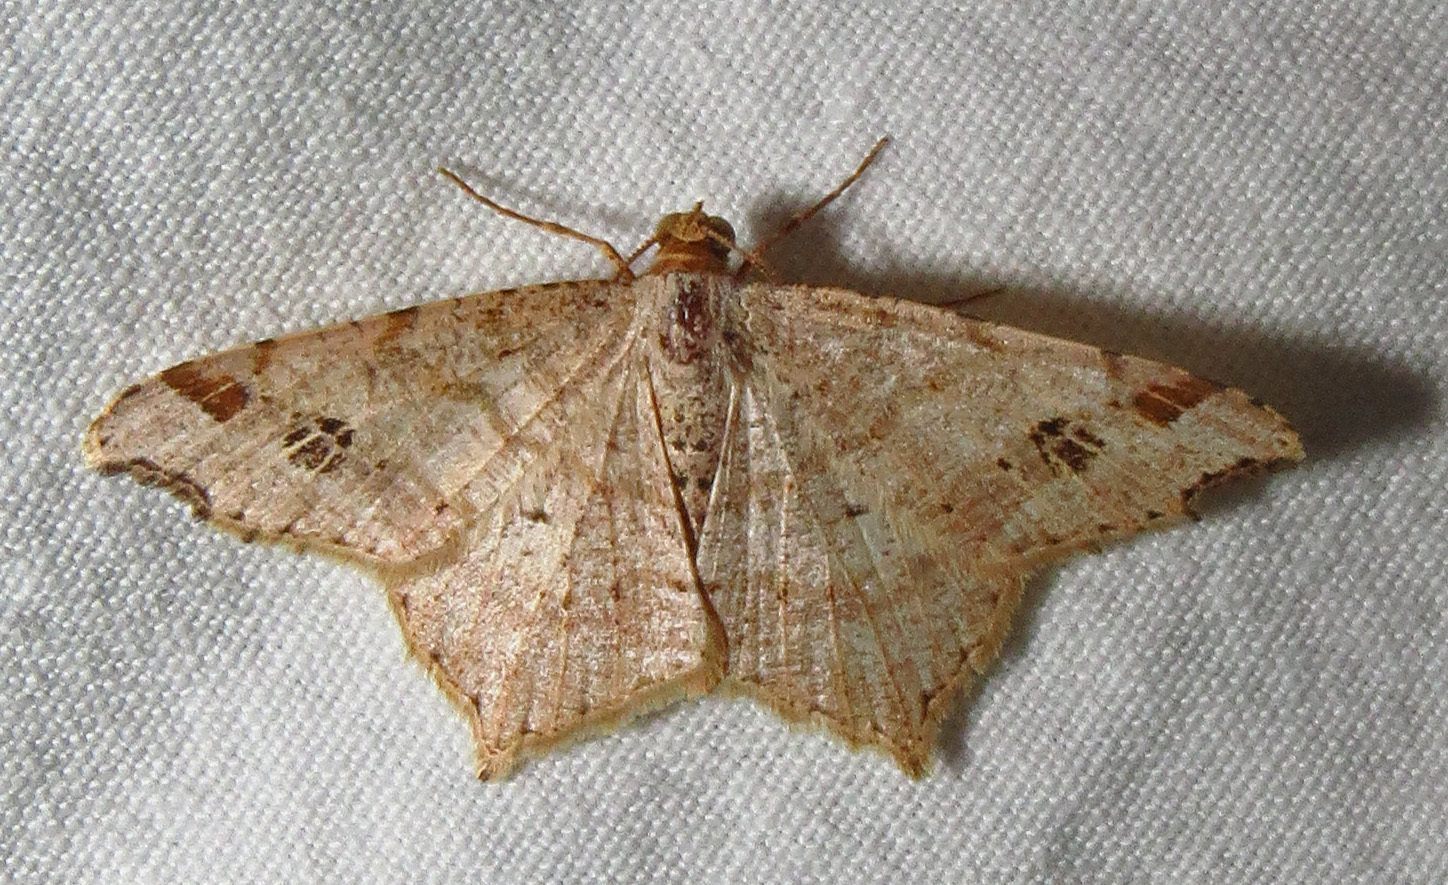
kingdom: Animalia
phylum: Arthropoda
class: Insecta
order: Lepidoptera
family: Geometridae
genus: Macaria
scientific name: Macaria promiscuata
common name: Promiscuous angle
